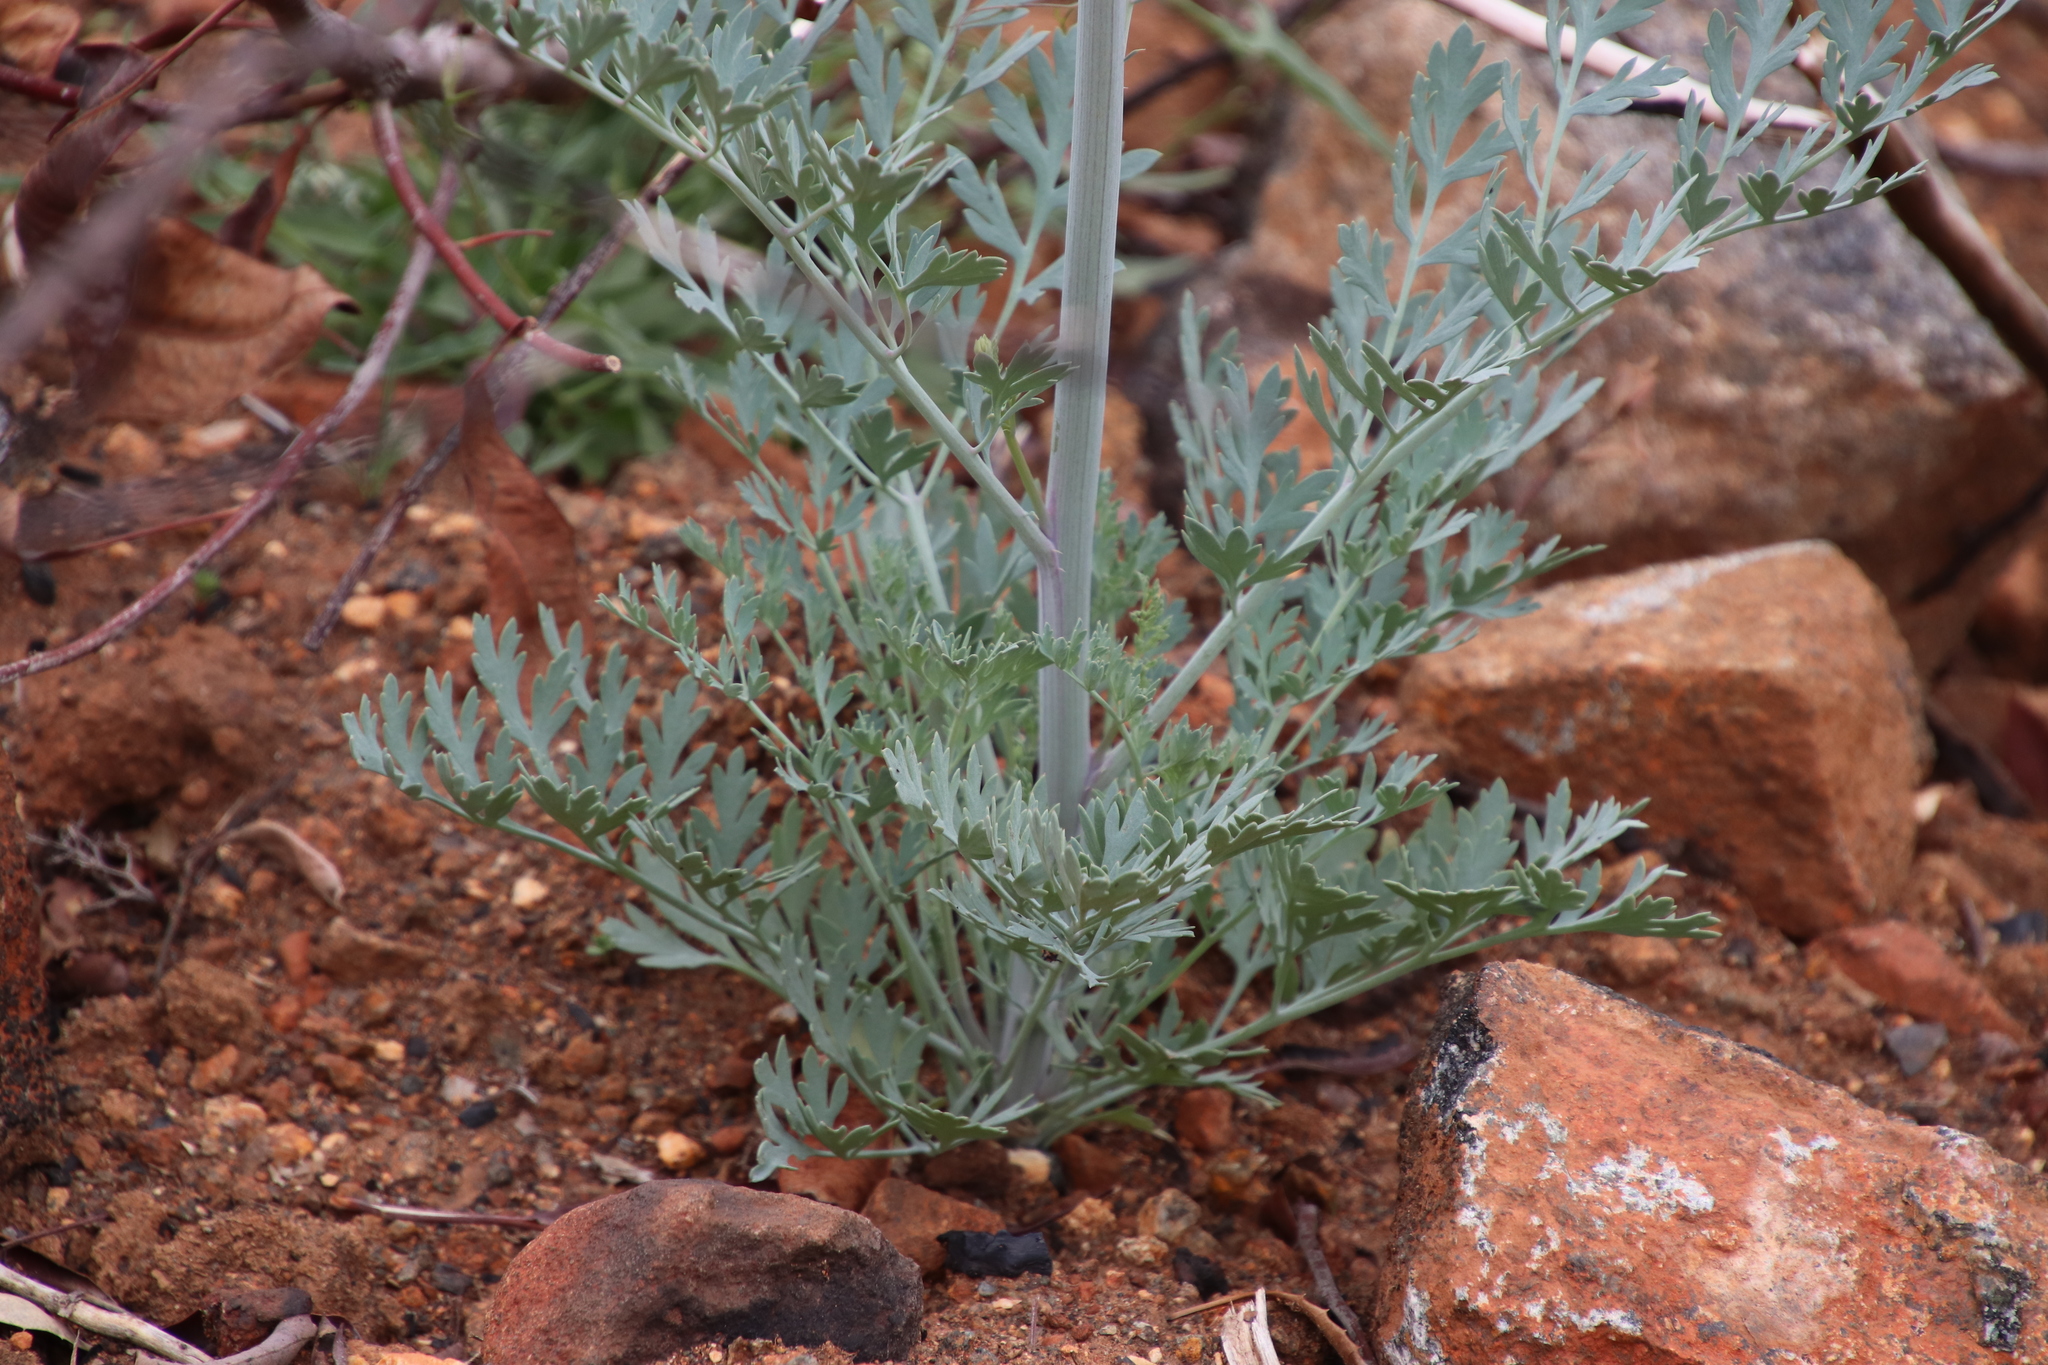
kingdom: Plantae
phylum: Tracheophyta
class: Magnoliopsida
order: Ranunculales
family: Papaveraceae
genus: Ehrendorferia
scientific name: Ehrendorferia chrysantha
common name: Golden eardrops
